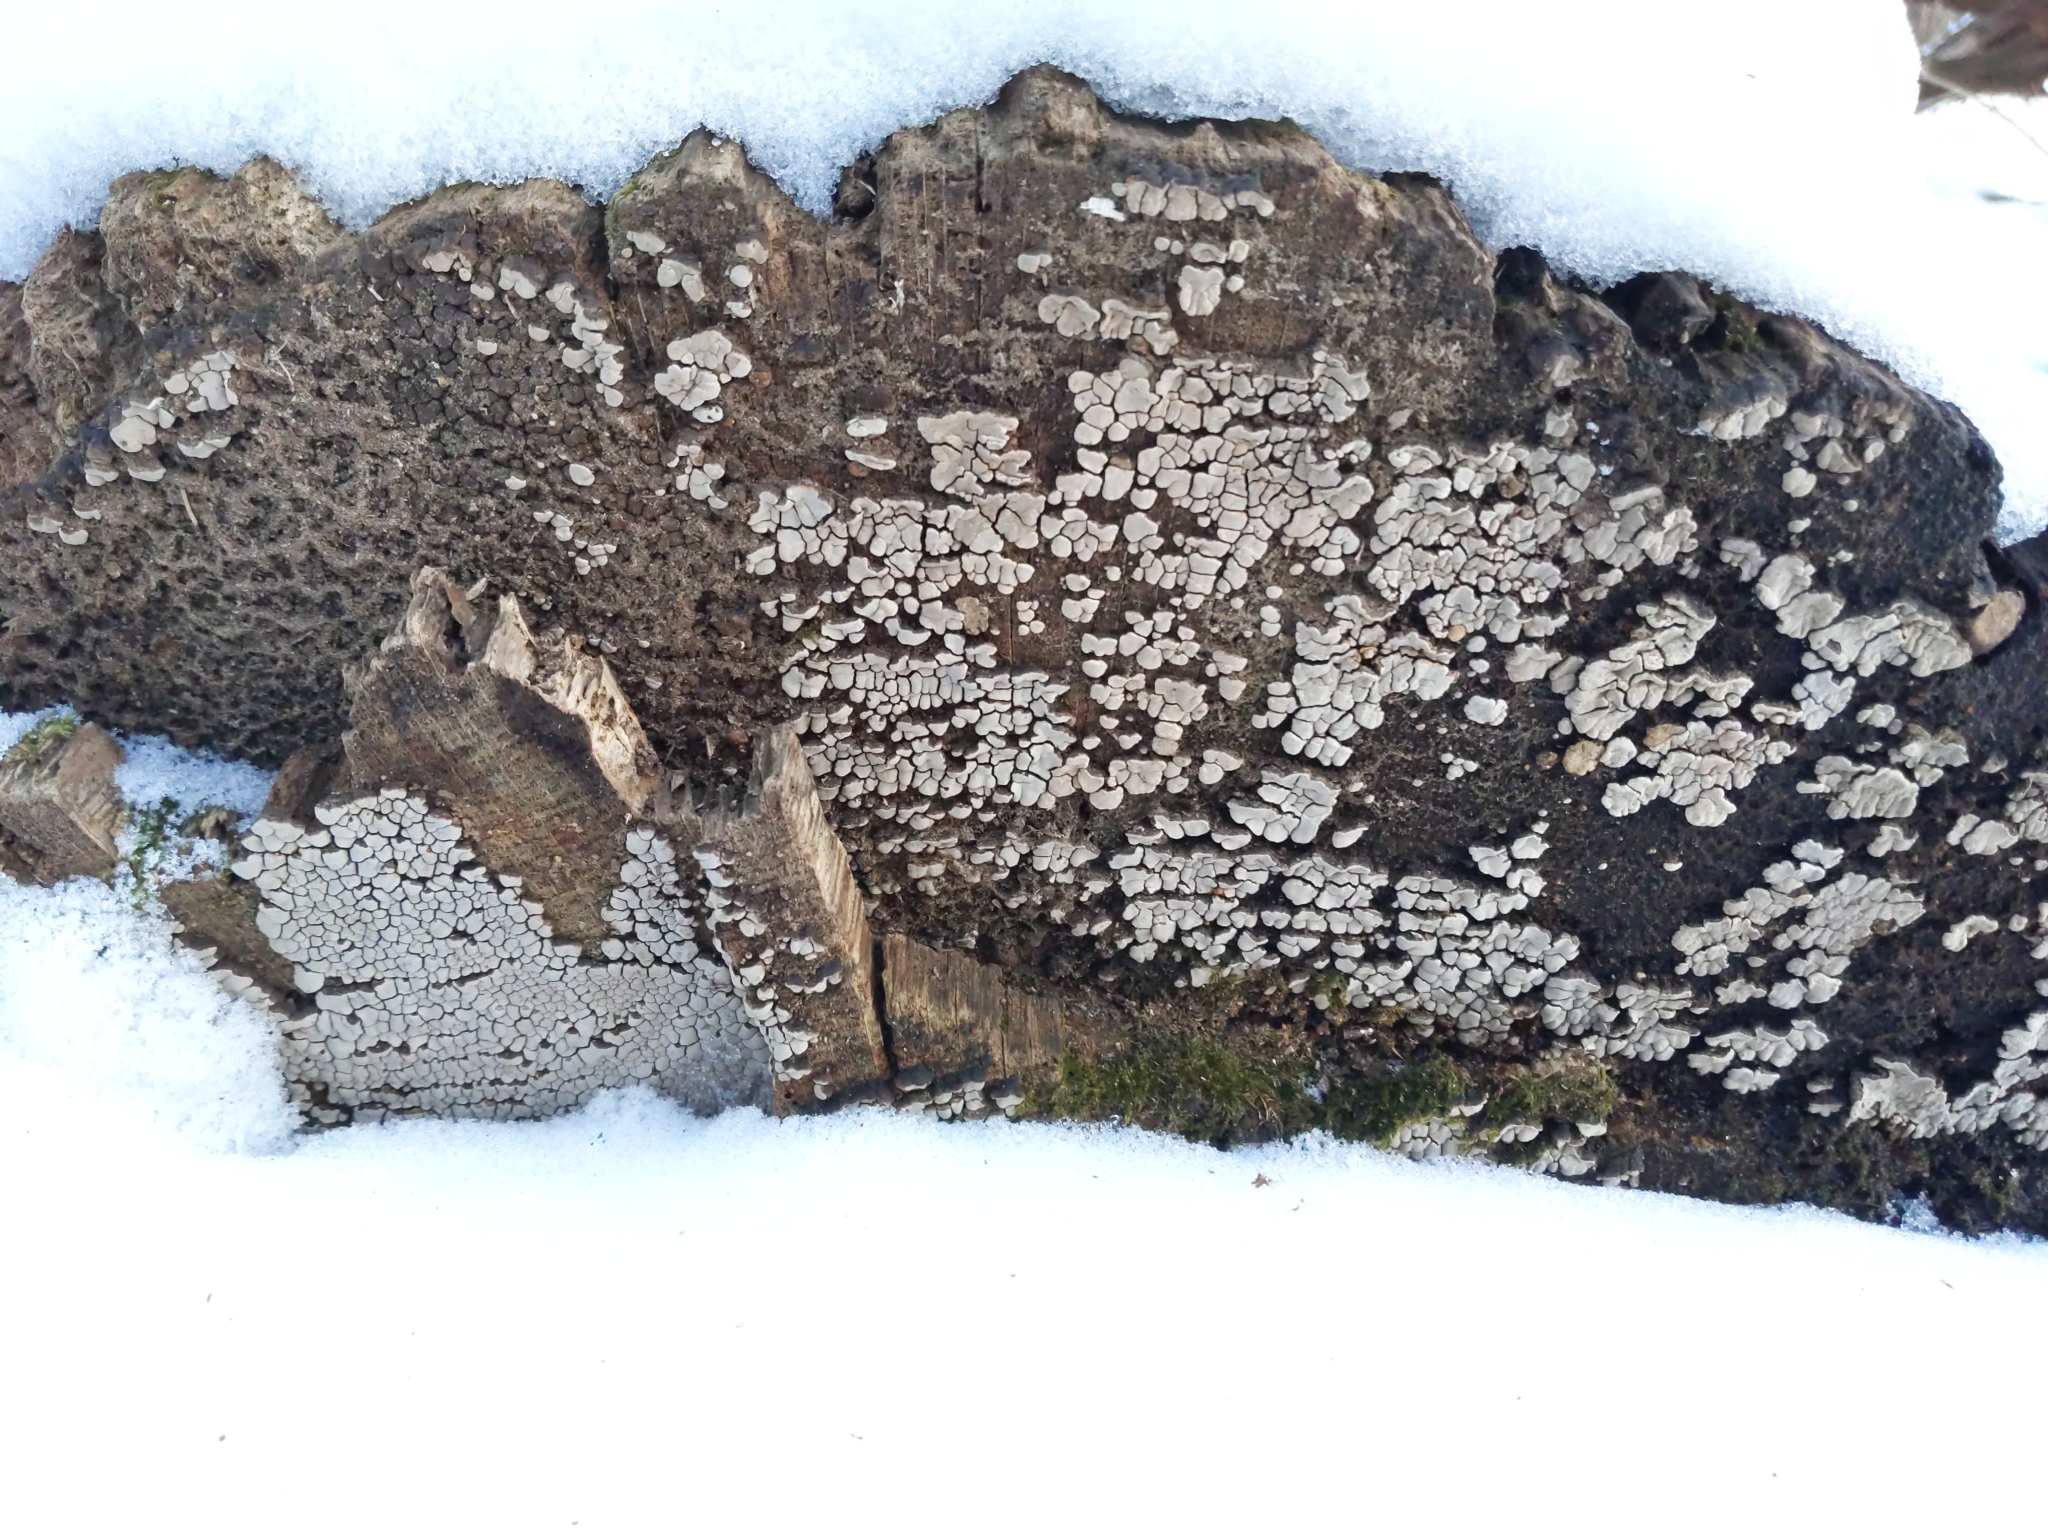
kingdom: Fungi
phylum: Basidiomycota
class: Agaricomycetes
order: Russulales
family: Stereaceae
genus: Xylobolus
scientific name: Xylobolus frustulatus
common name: Ceramic parchment
